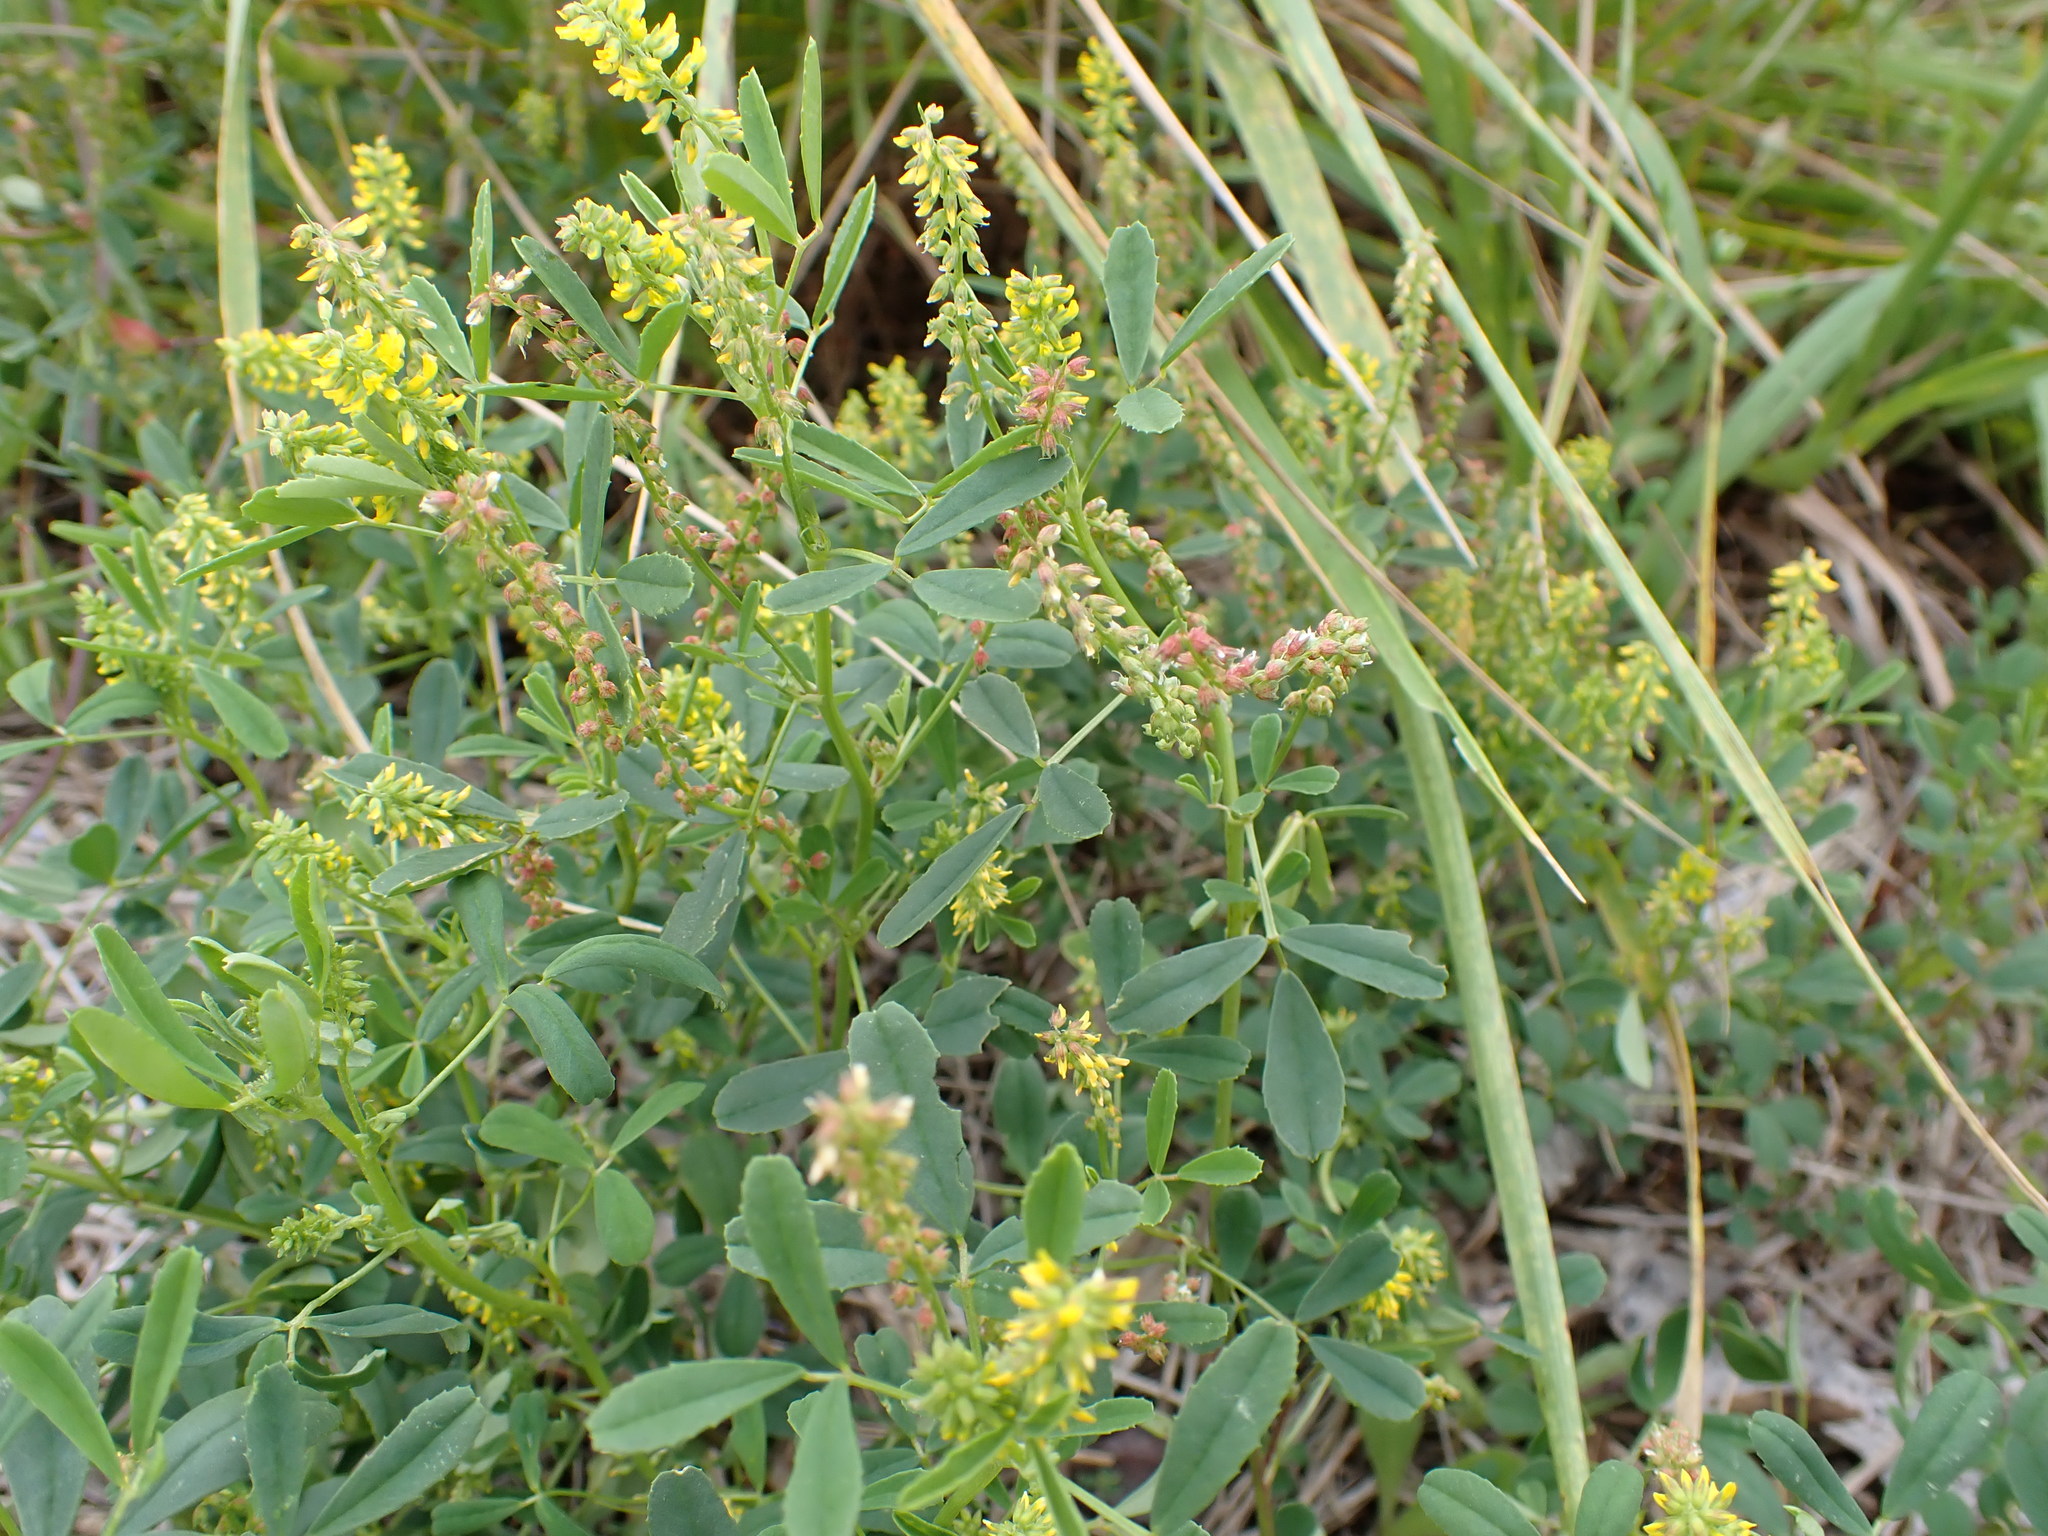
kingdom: Plantae
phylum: Tracheophyta
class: Magnoliopsida
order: Fabales
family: Fabaceae
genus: Melilotus
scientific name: Melilotus indicus
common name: Small melilot
